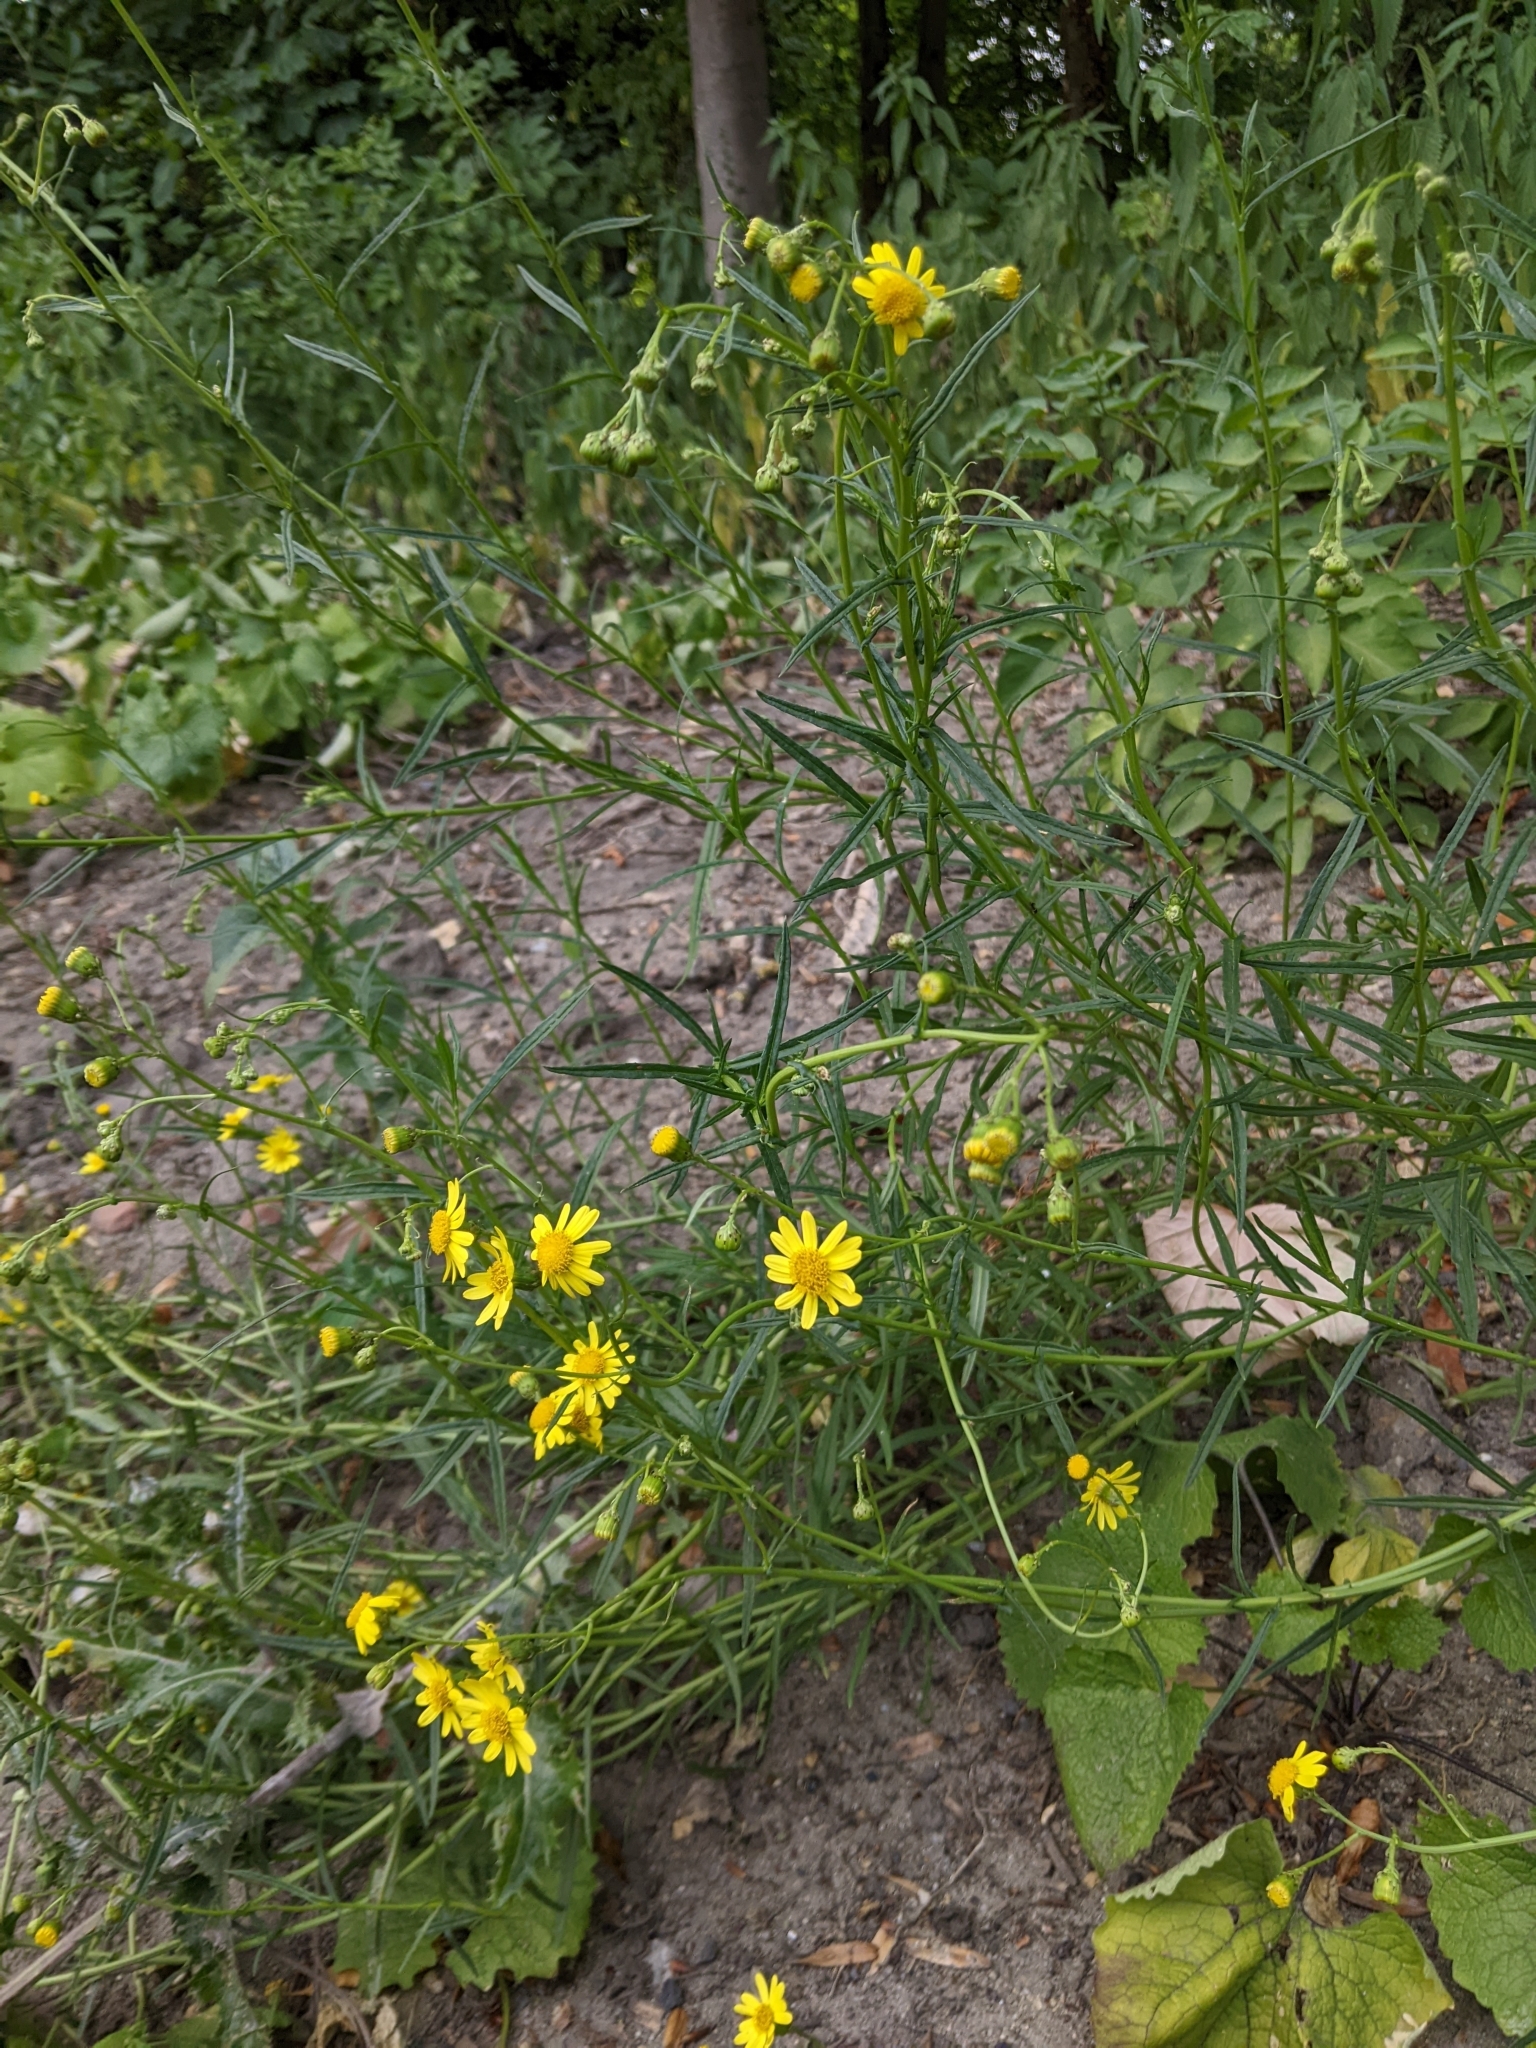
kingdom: Plantae
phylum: Tracheophyta
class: Magnoliopsida
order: Asterales
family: Asteraceae
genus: Senecio
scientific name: Senecio inaequidens
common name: Narrow-leaved ragwort
